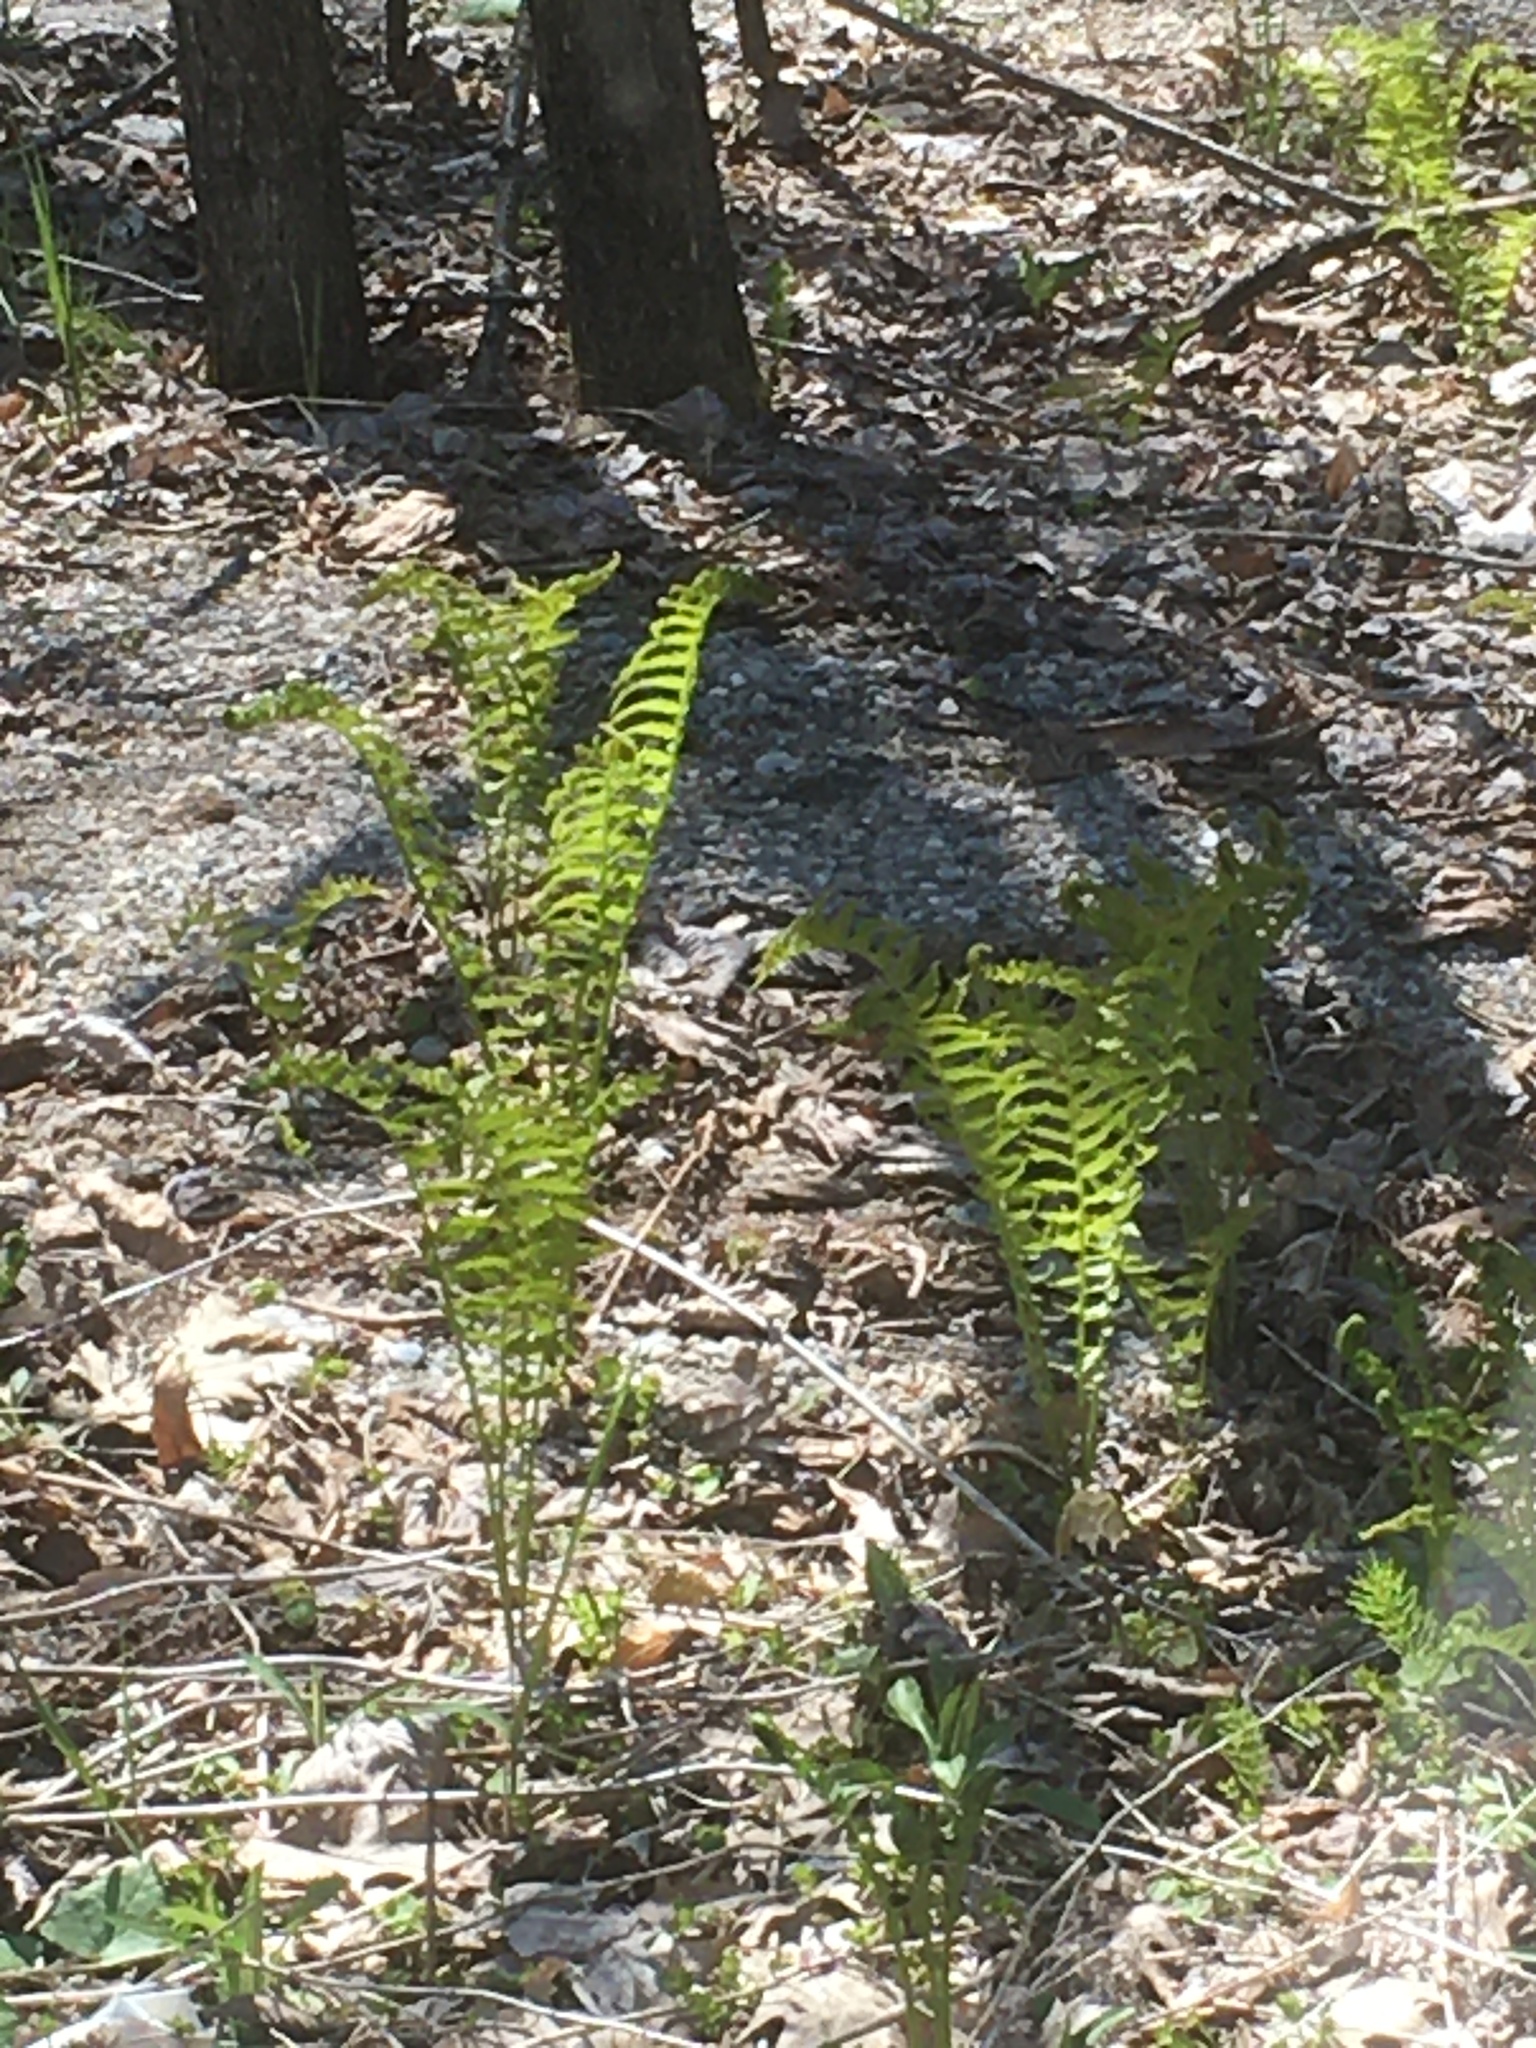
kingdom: Plantae
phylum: Tracheophyta
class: Polypodiopsida
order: Polypodiales
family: Onocleaceae
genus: Matteuccia
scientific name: Matteuccia struthiopteris
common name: Ostrich fern
